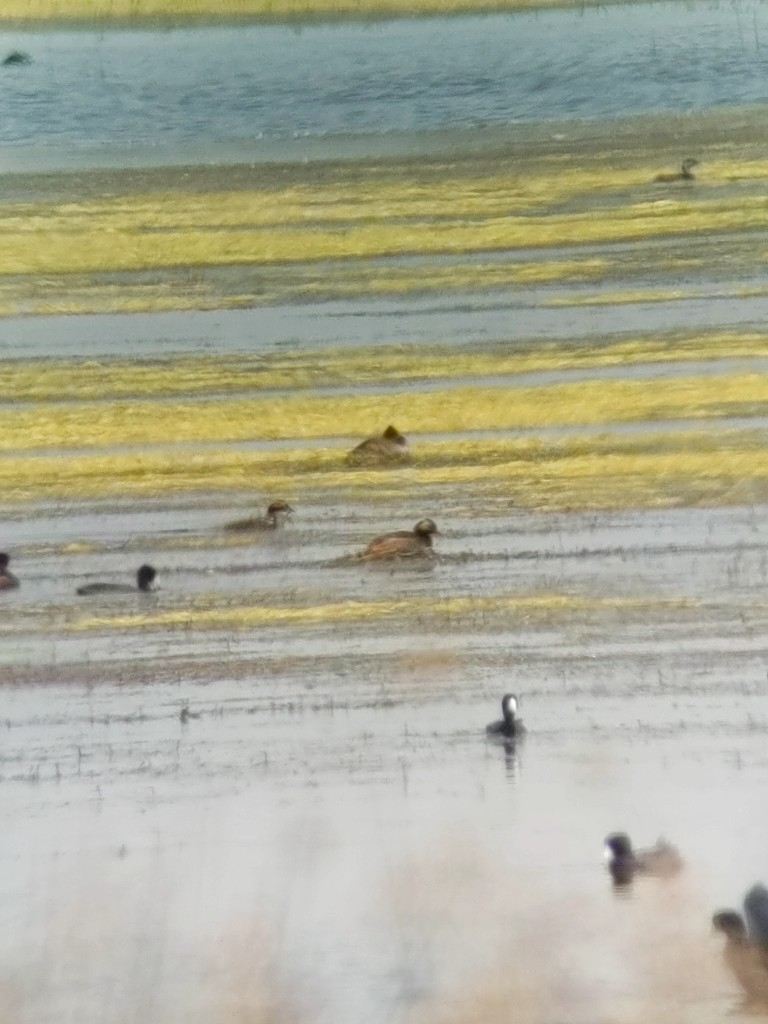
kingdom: Animalia
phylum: Chordata
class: Aves
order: Podicipediformes
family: Podicipedidae
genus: Podiceps
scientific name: Podiceps nigricollis
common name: Black-necked grebe
